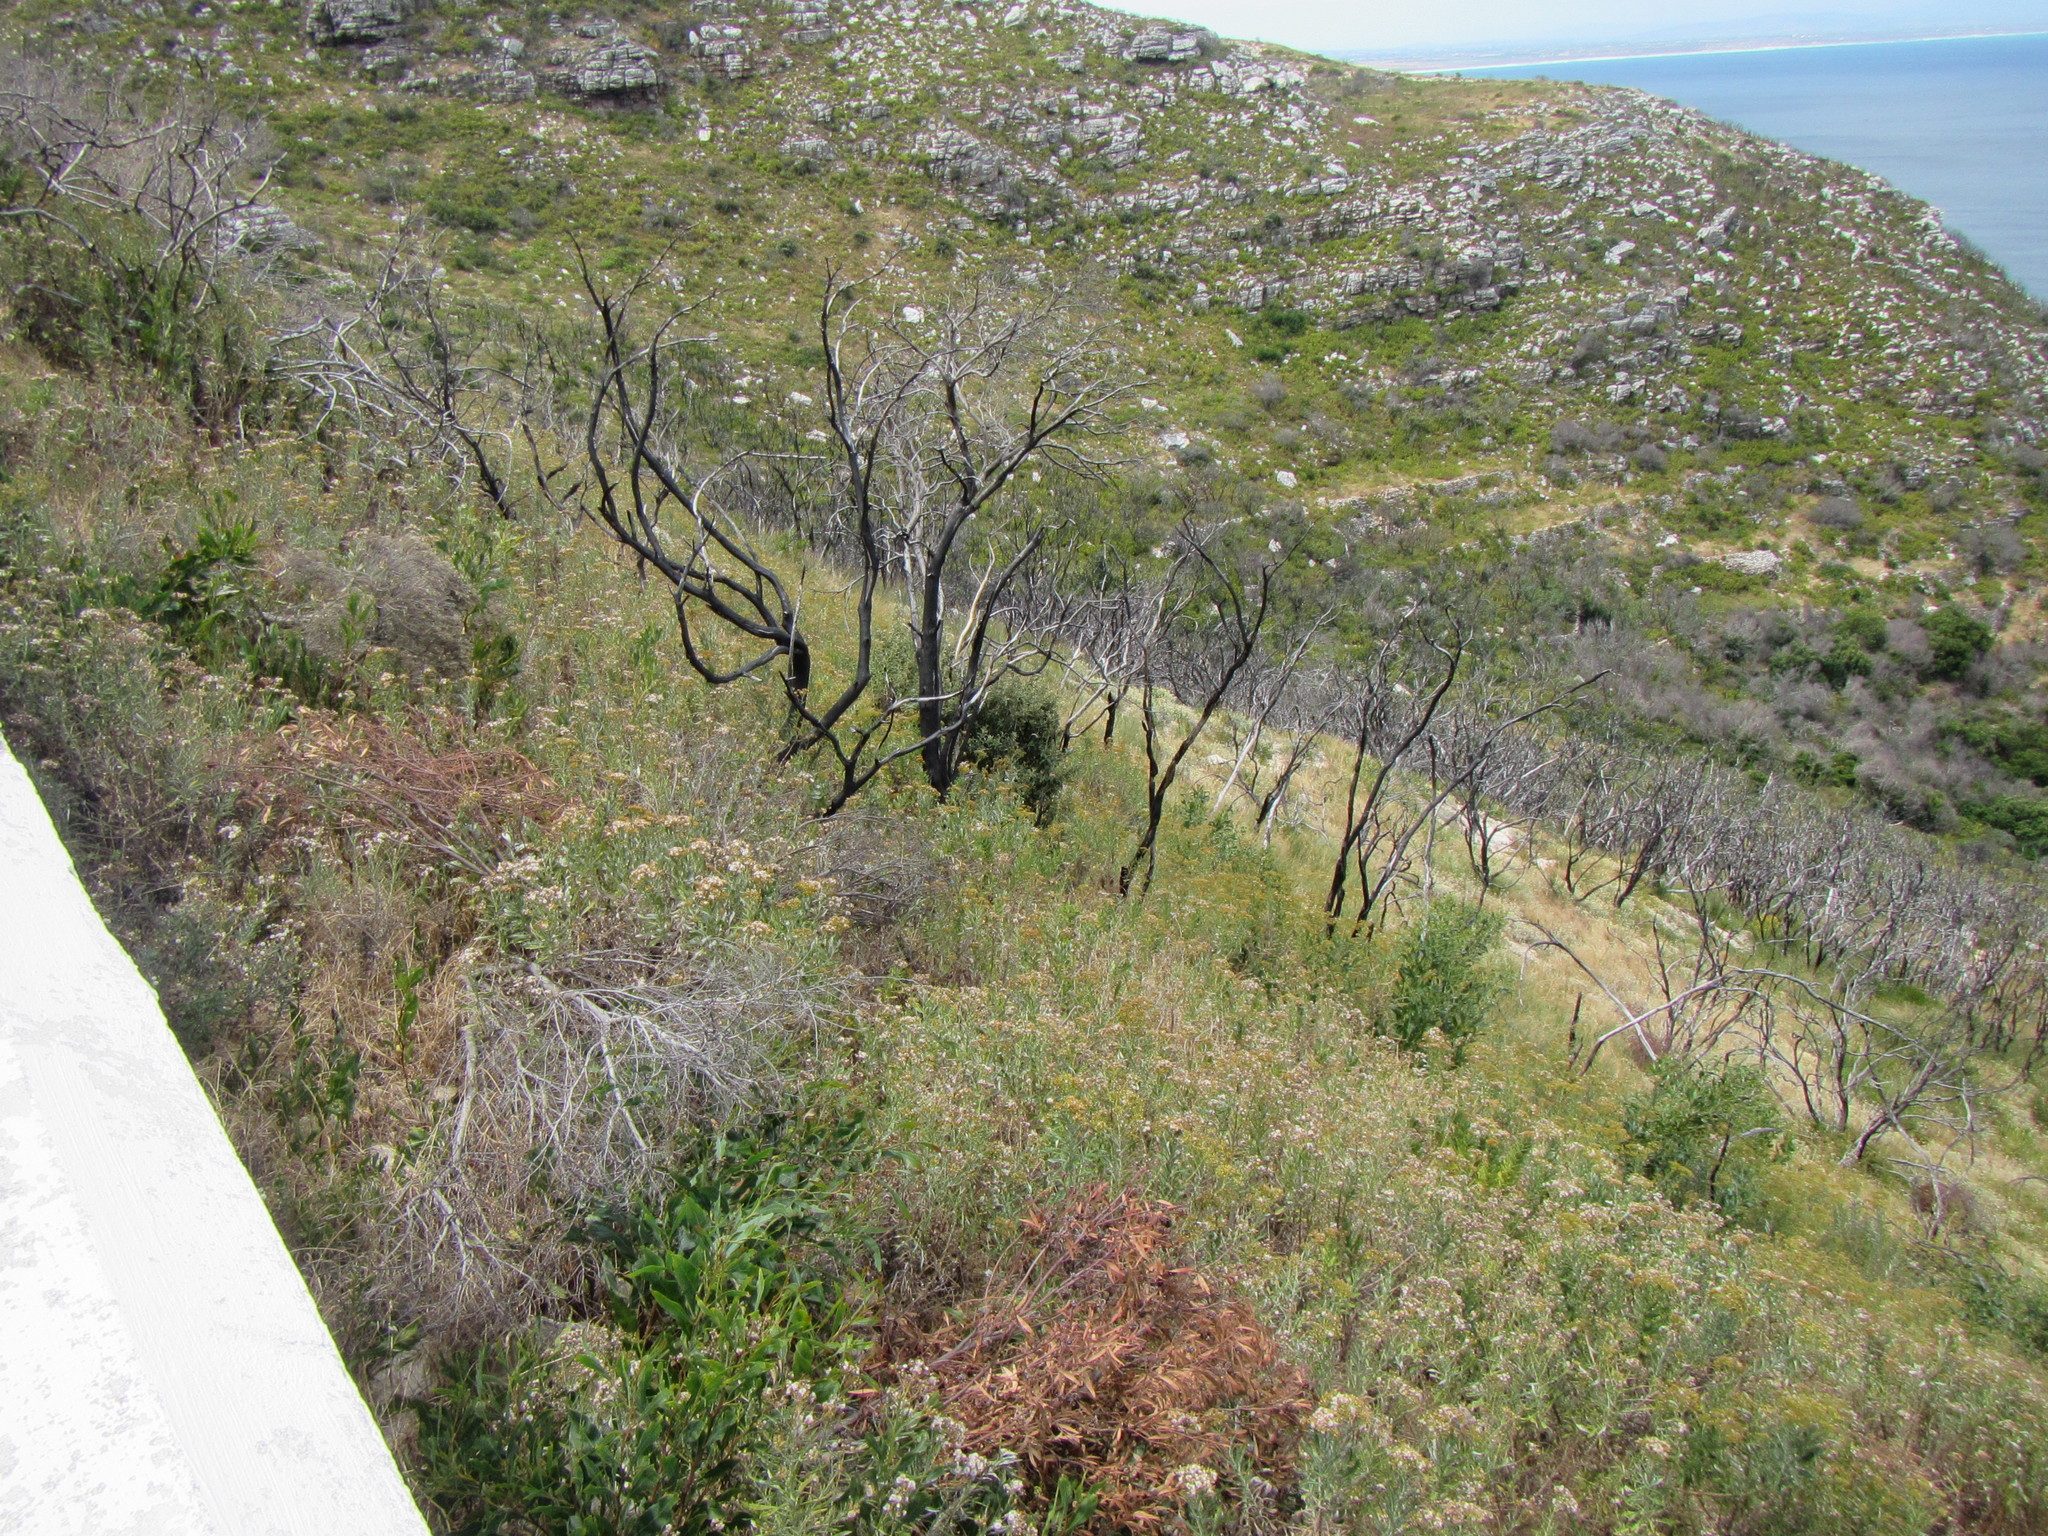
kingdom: Plantae
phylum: Tracheophyta
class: Magnoliopsida
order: Asterales
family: Asteraceae
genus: Senecio
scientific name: Senecio pterophorus
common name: Shoddy ragwort
